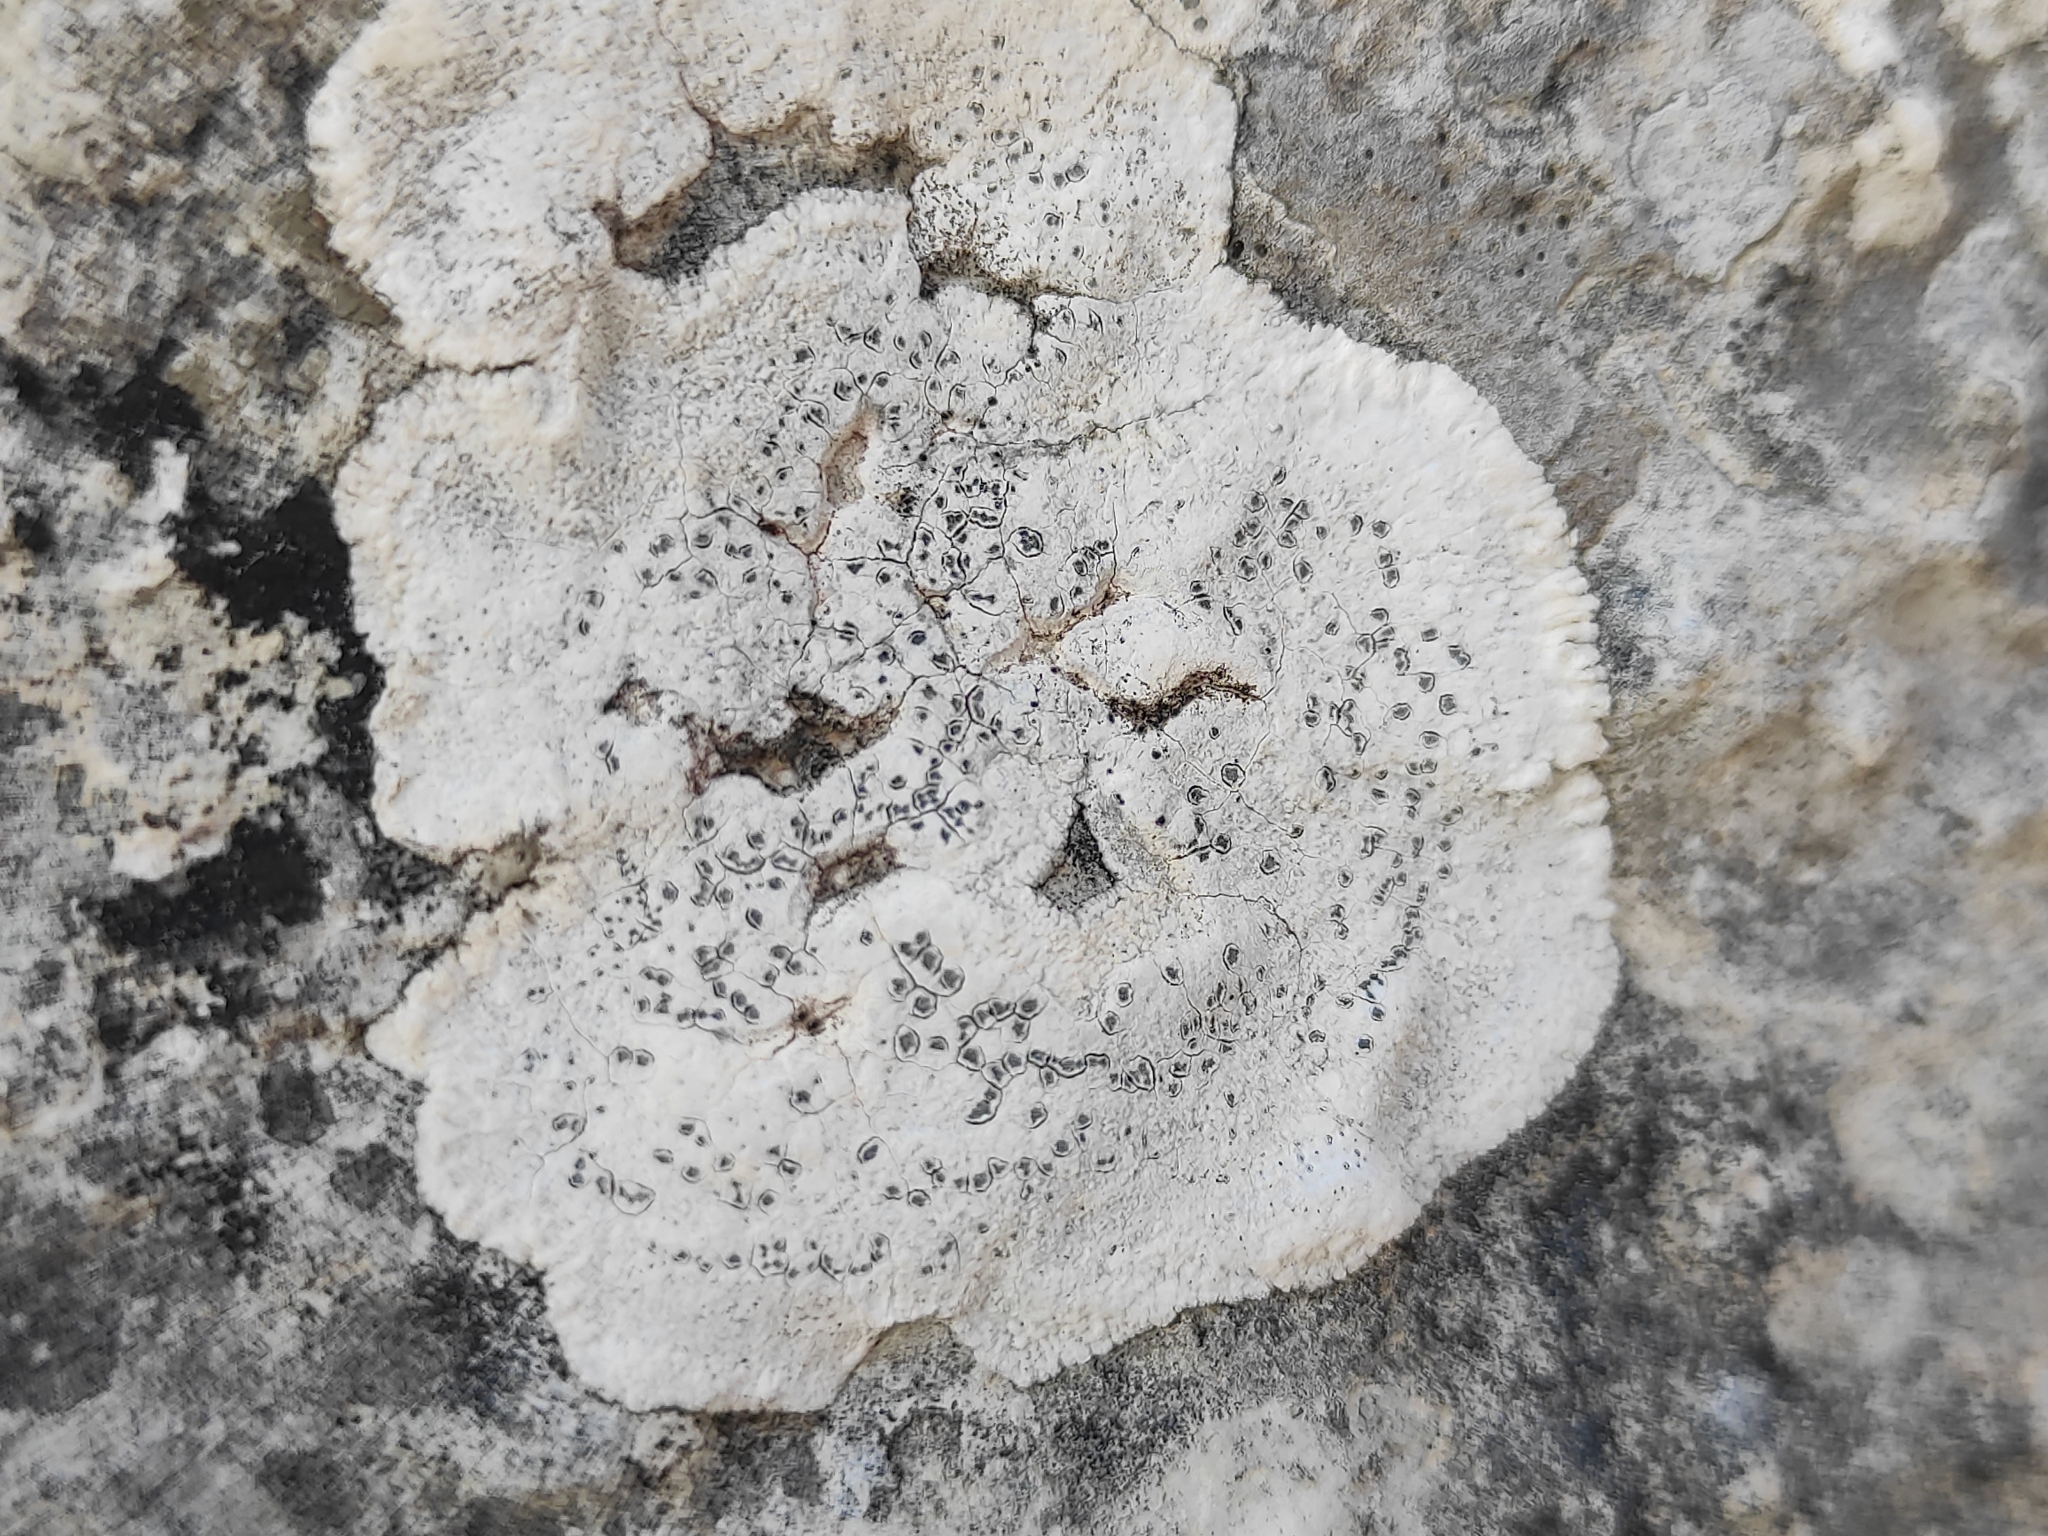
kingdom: Fungi
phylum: Ascomycota
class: Lecanoromycetes
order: Pertusariales
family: Megasporaceae
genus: Lobothallia
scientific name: Lobothallia controversa
